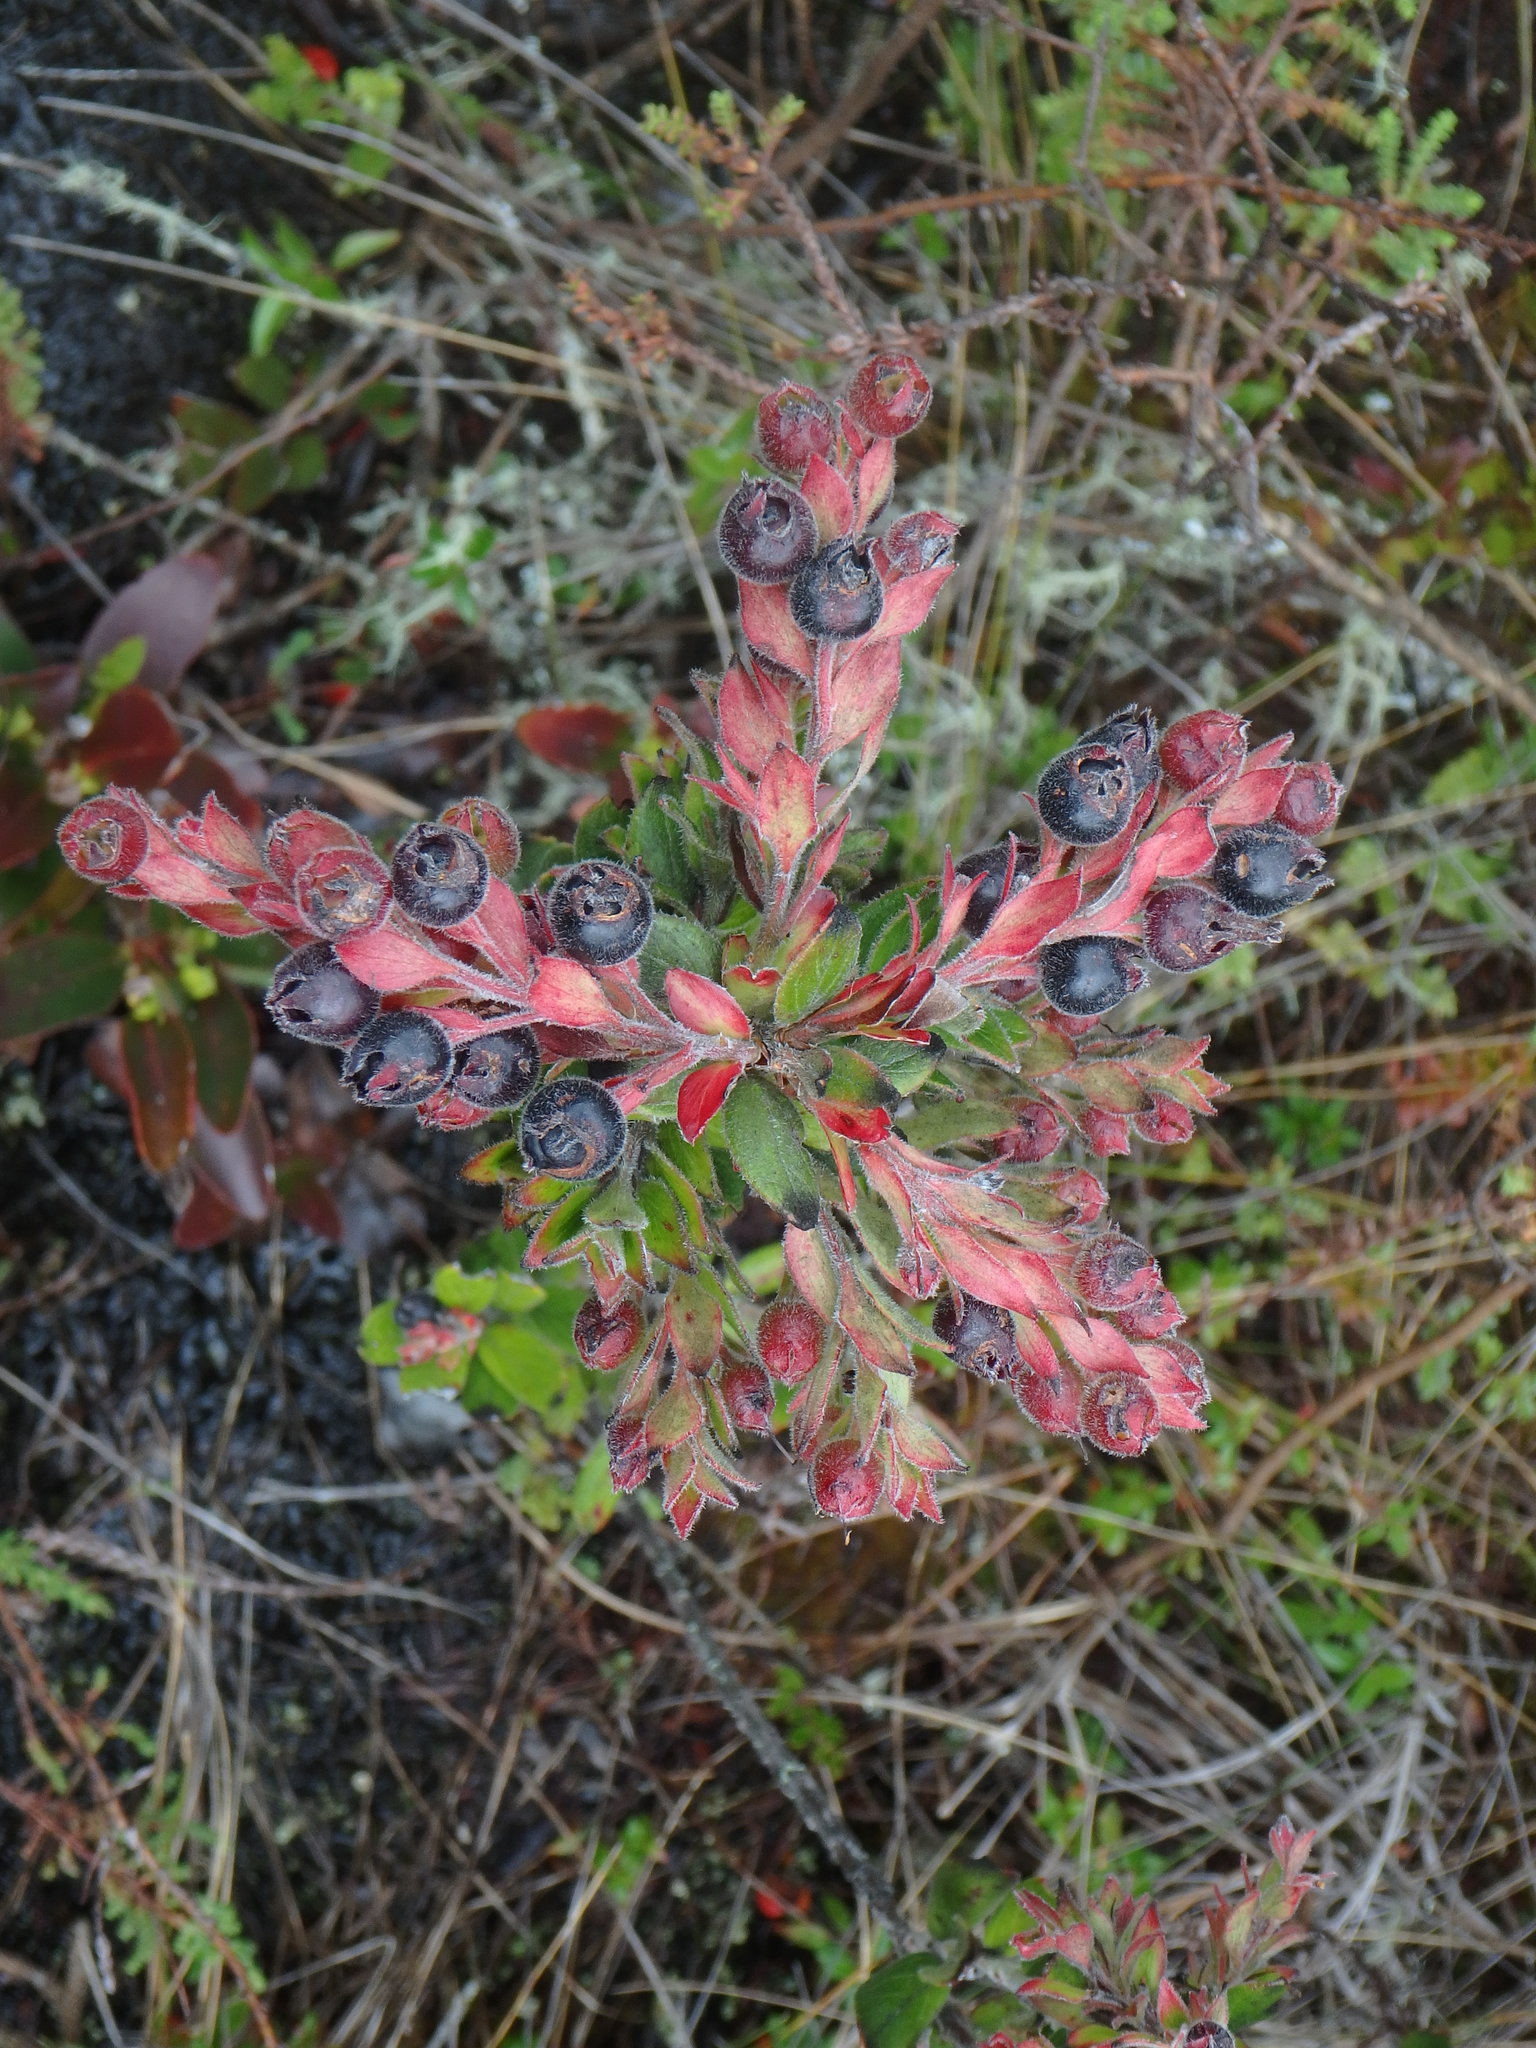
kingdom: Plantae
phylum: Tracheophyta
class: Magnoliopsida
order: Ericales
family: Ericaceae
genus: Gaylussacia
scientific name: Gaylussacia buxifolia
